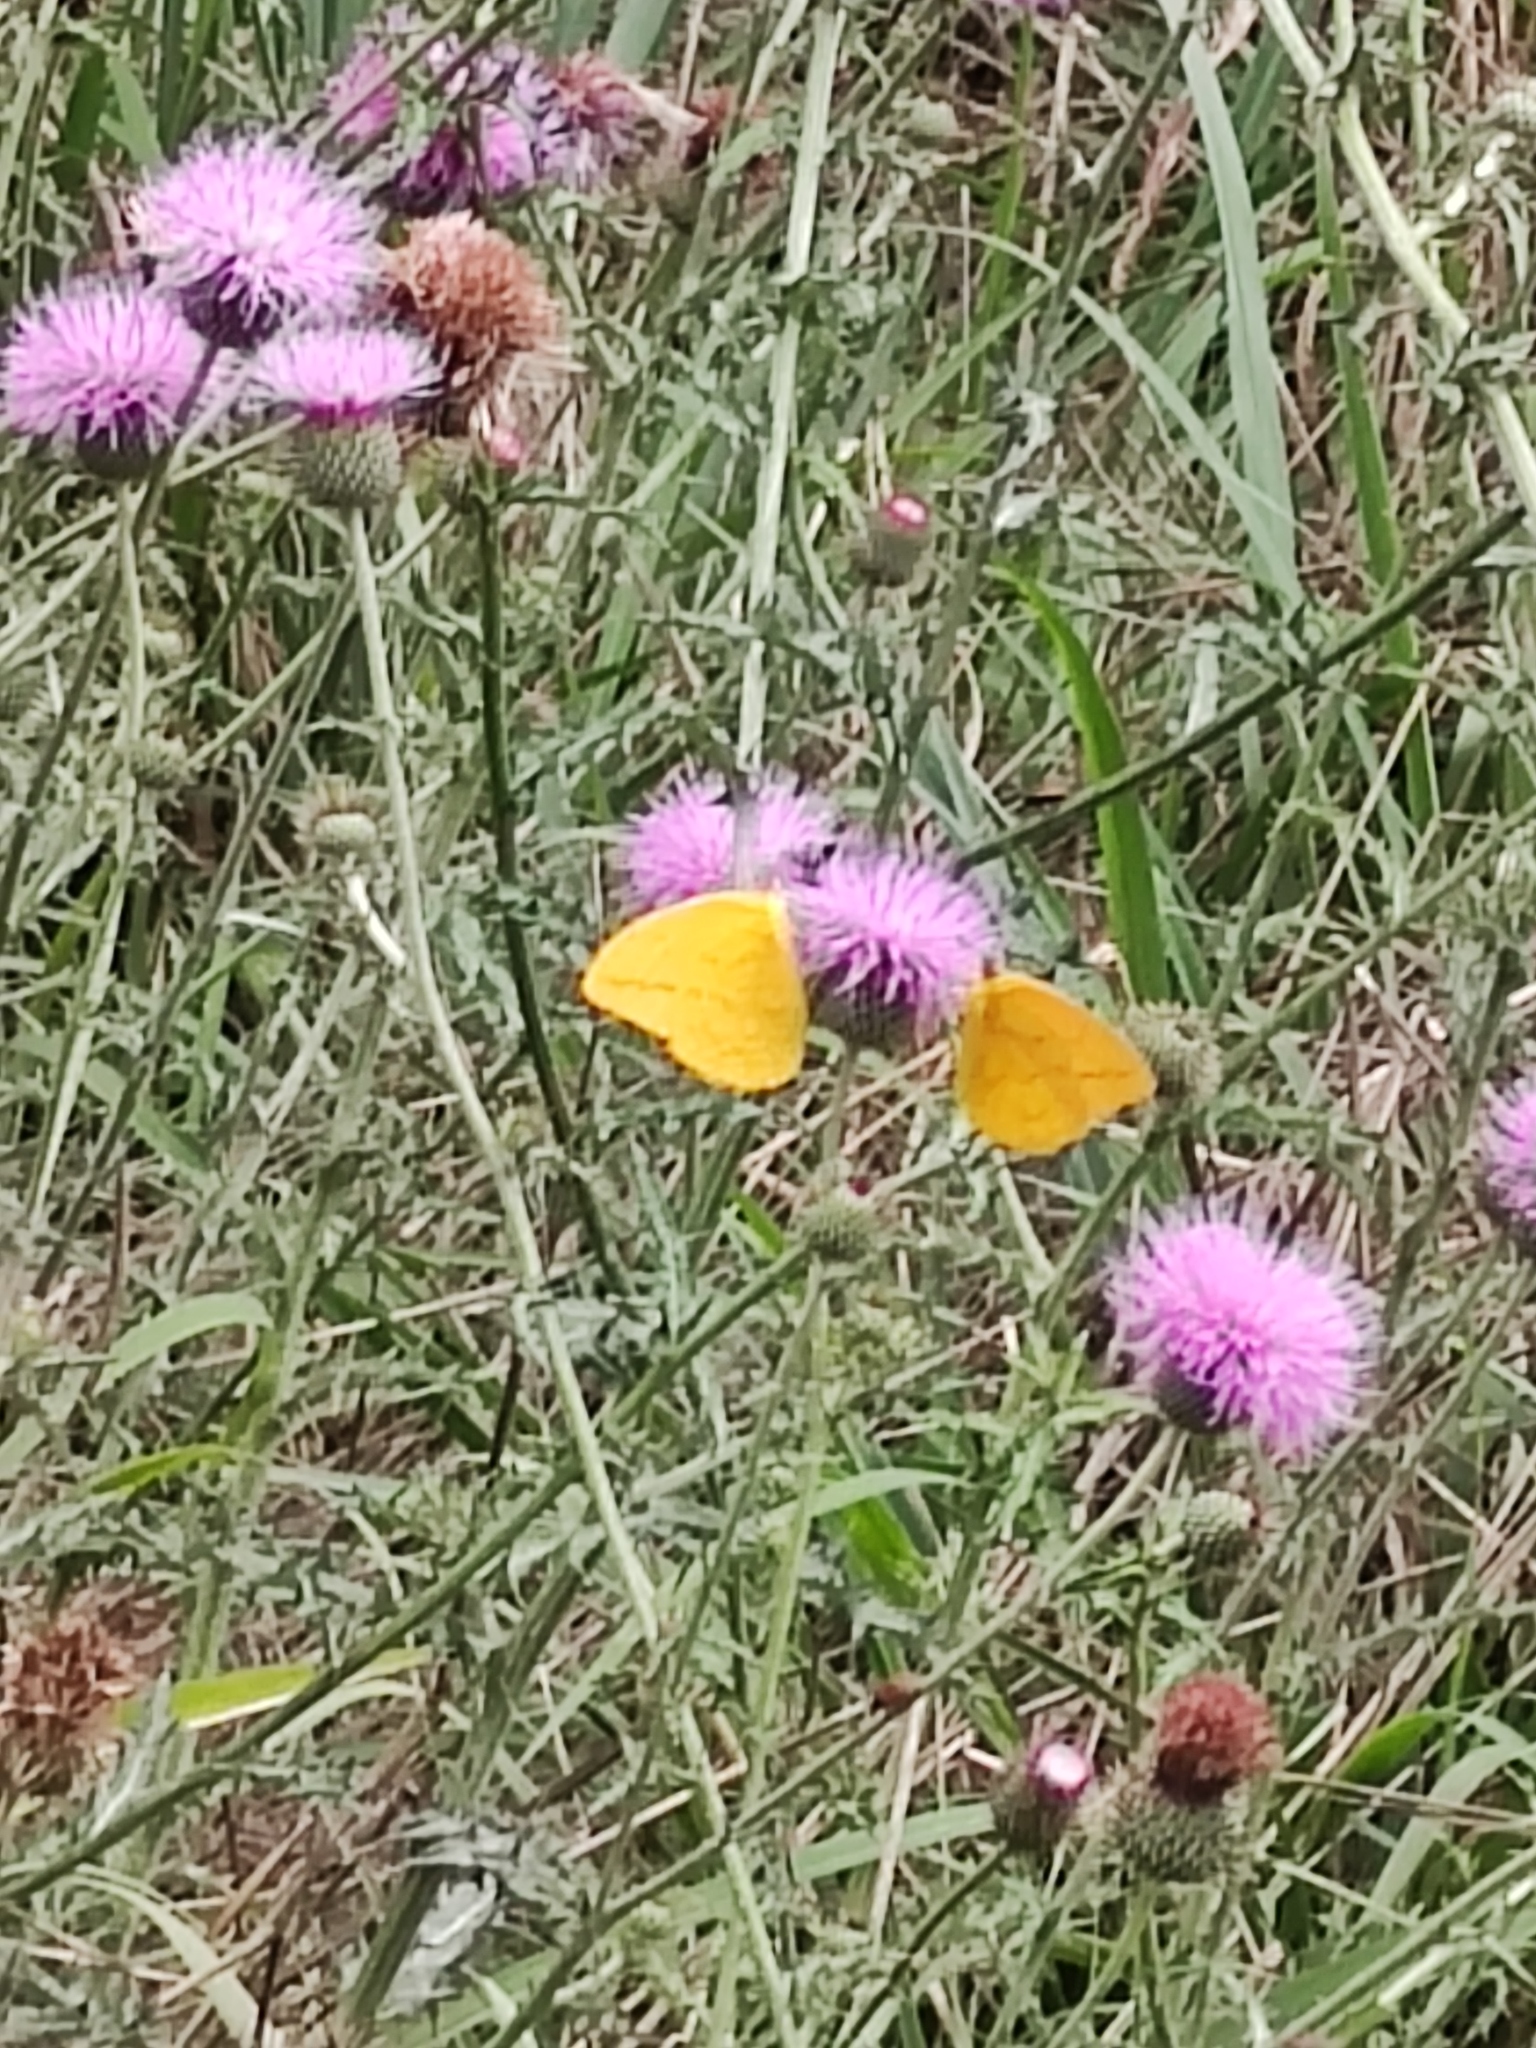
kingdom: Animalia
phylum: Arthropoda
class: Insecta
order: Lepidoptera
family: Pieridae
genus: Phoebis
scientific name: Phoebis agarithe
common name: Large orange sulphur
